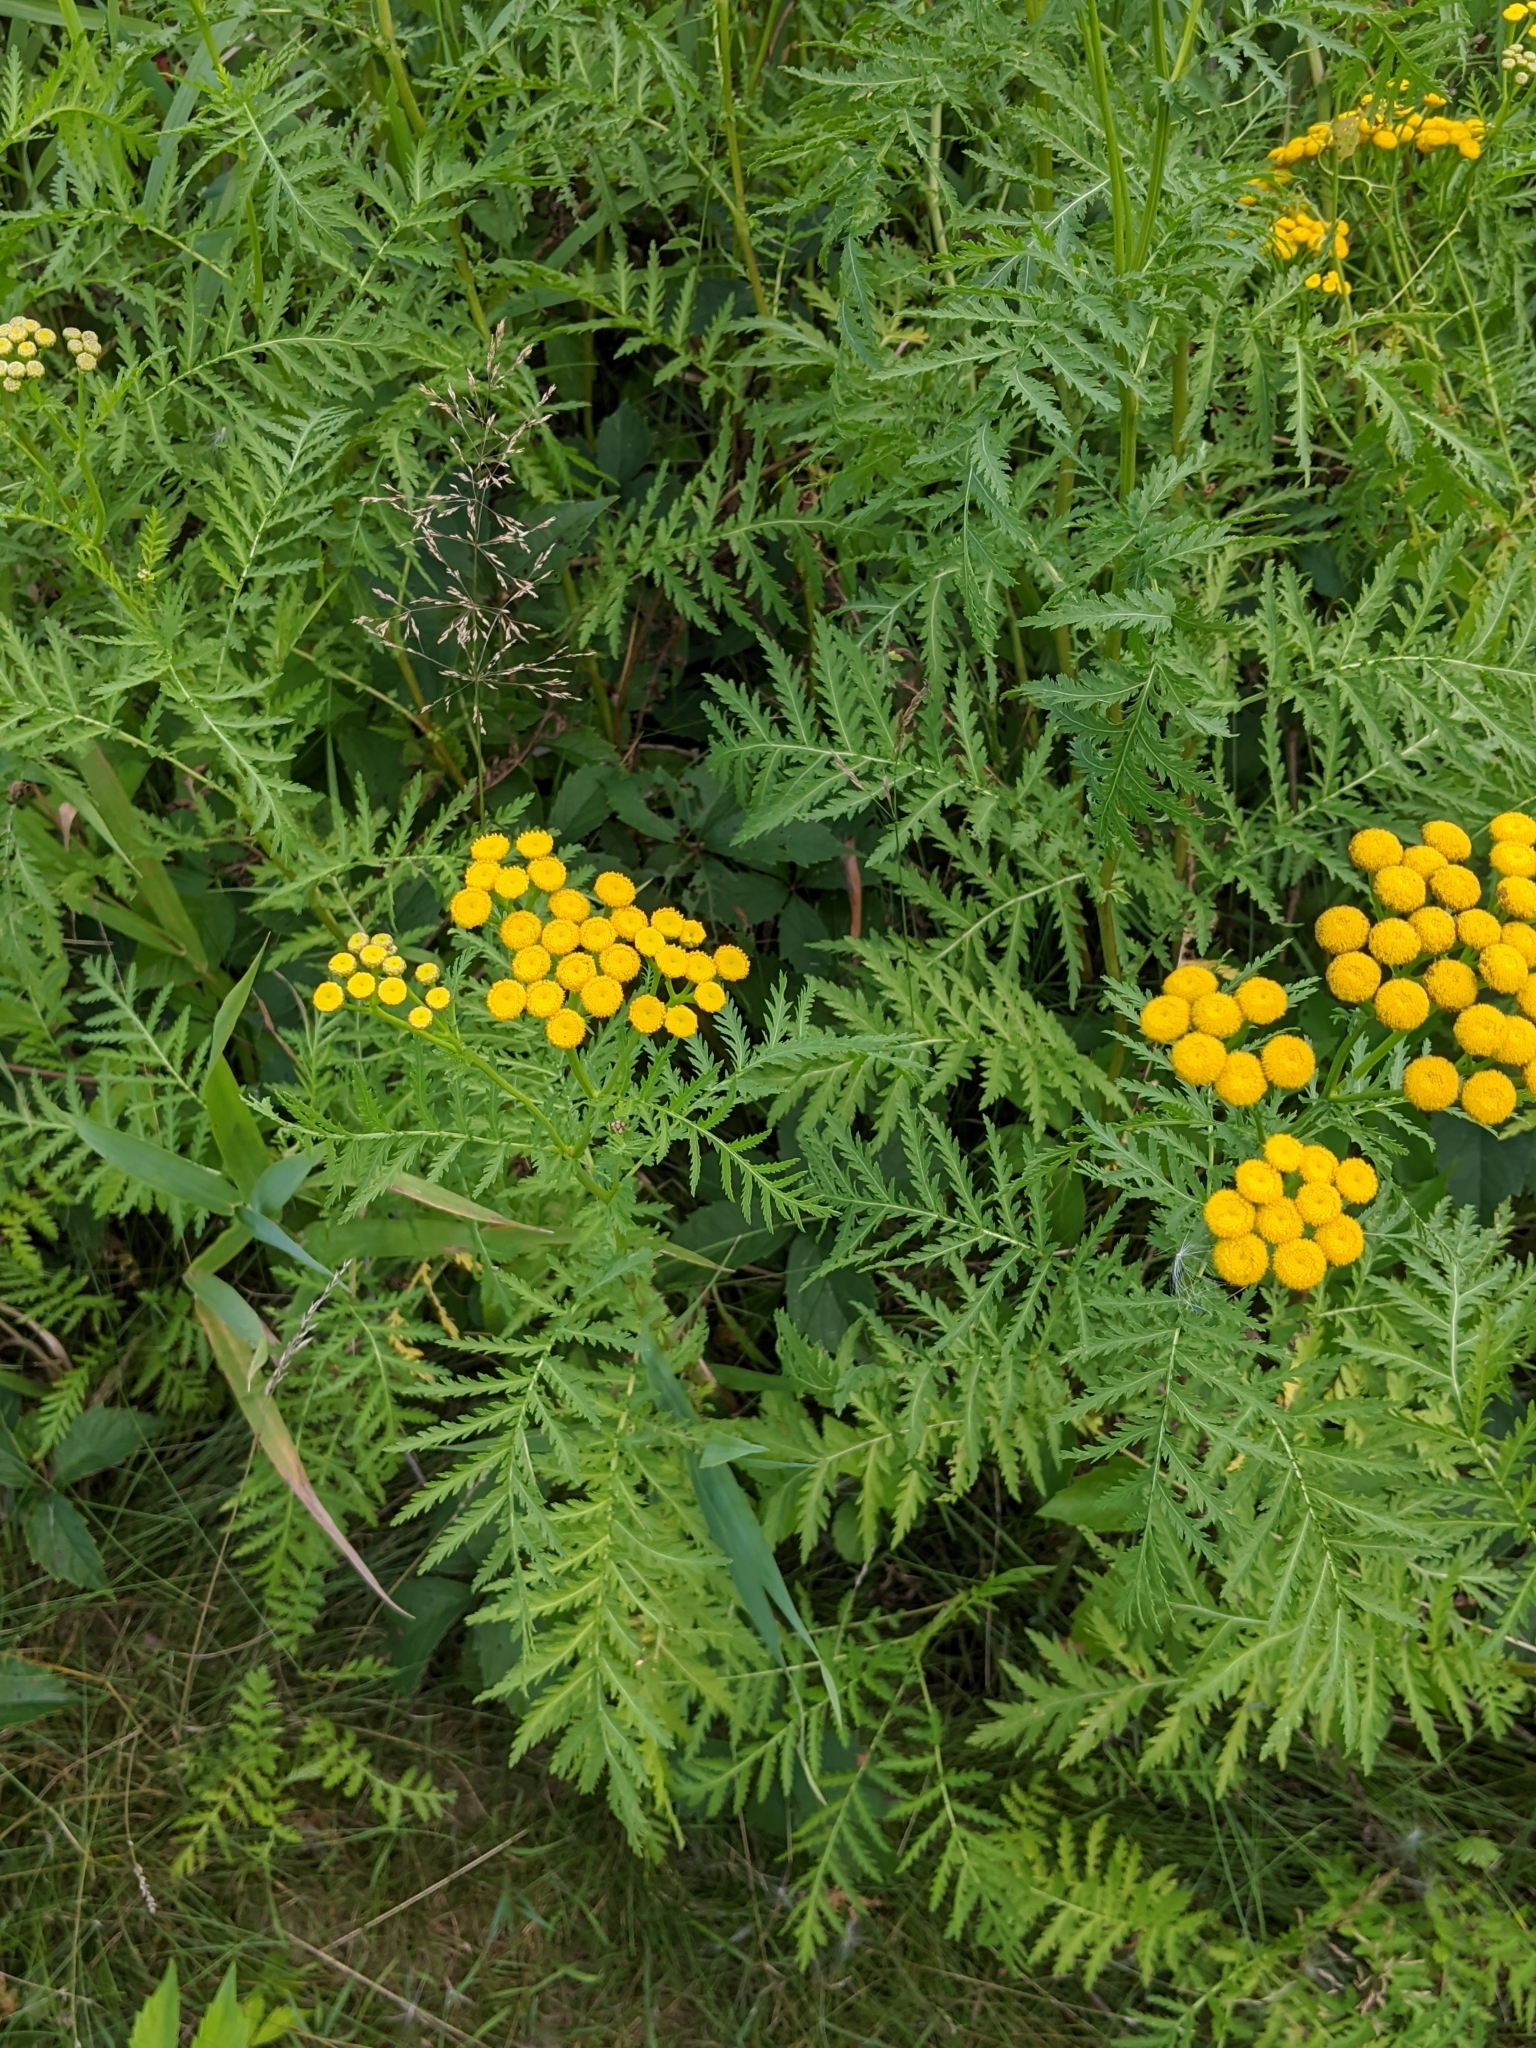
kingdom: Plantae
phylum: Tracheophyta
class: Magnoliopsida
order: Asterales
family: Asteraceae
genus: Tanacetum
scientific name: Tanacetum vulgare
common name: Common tansy
